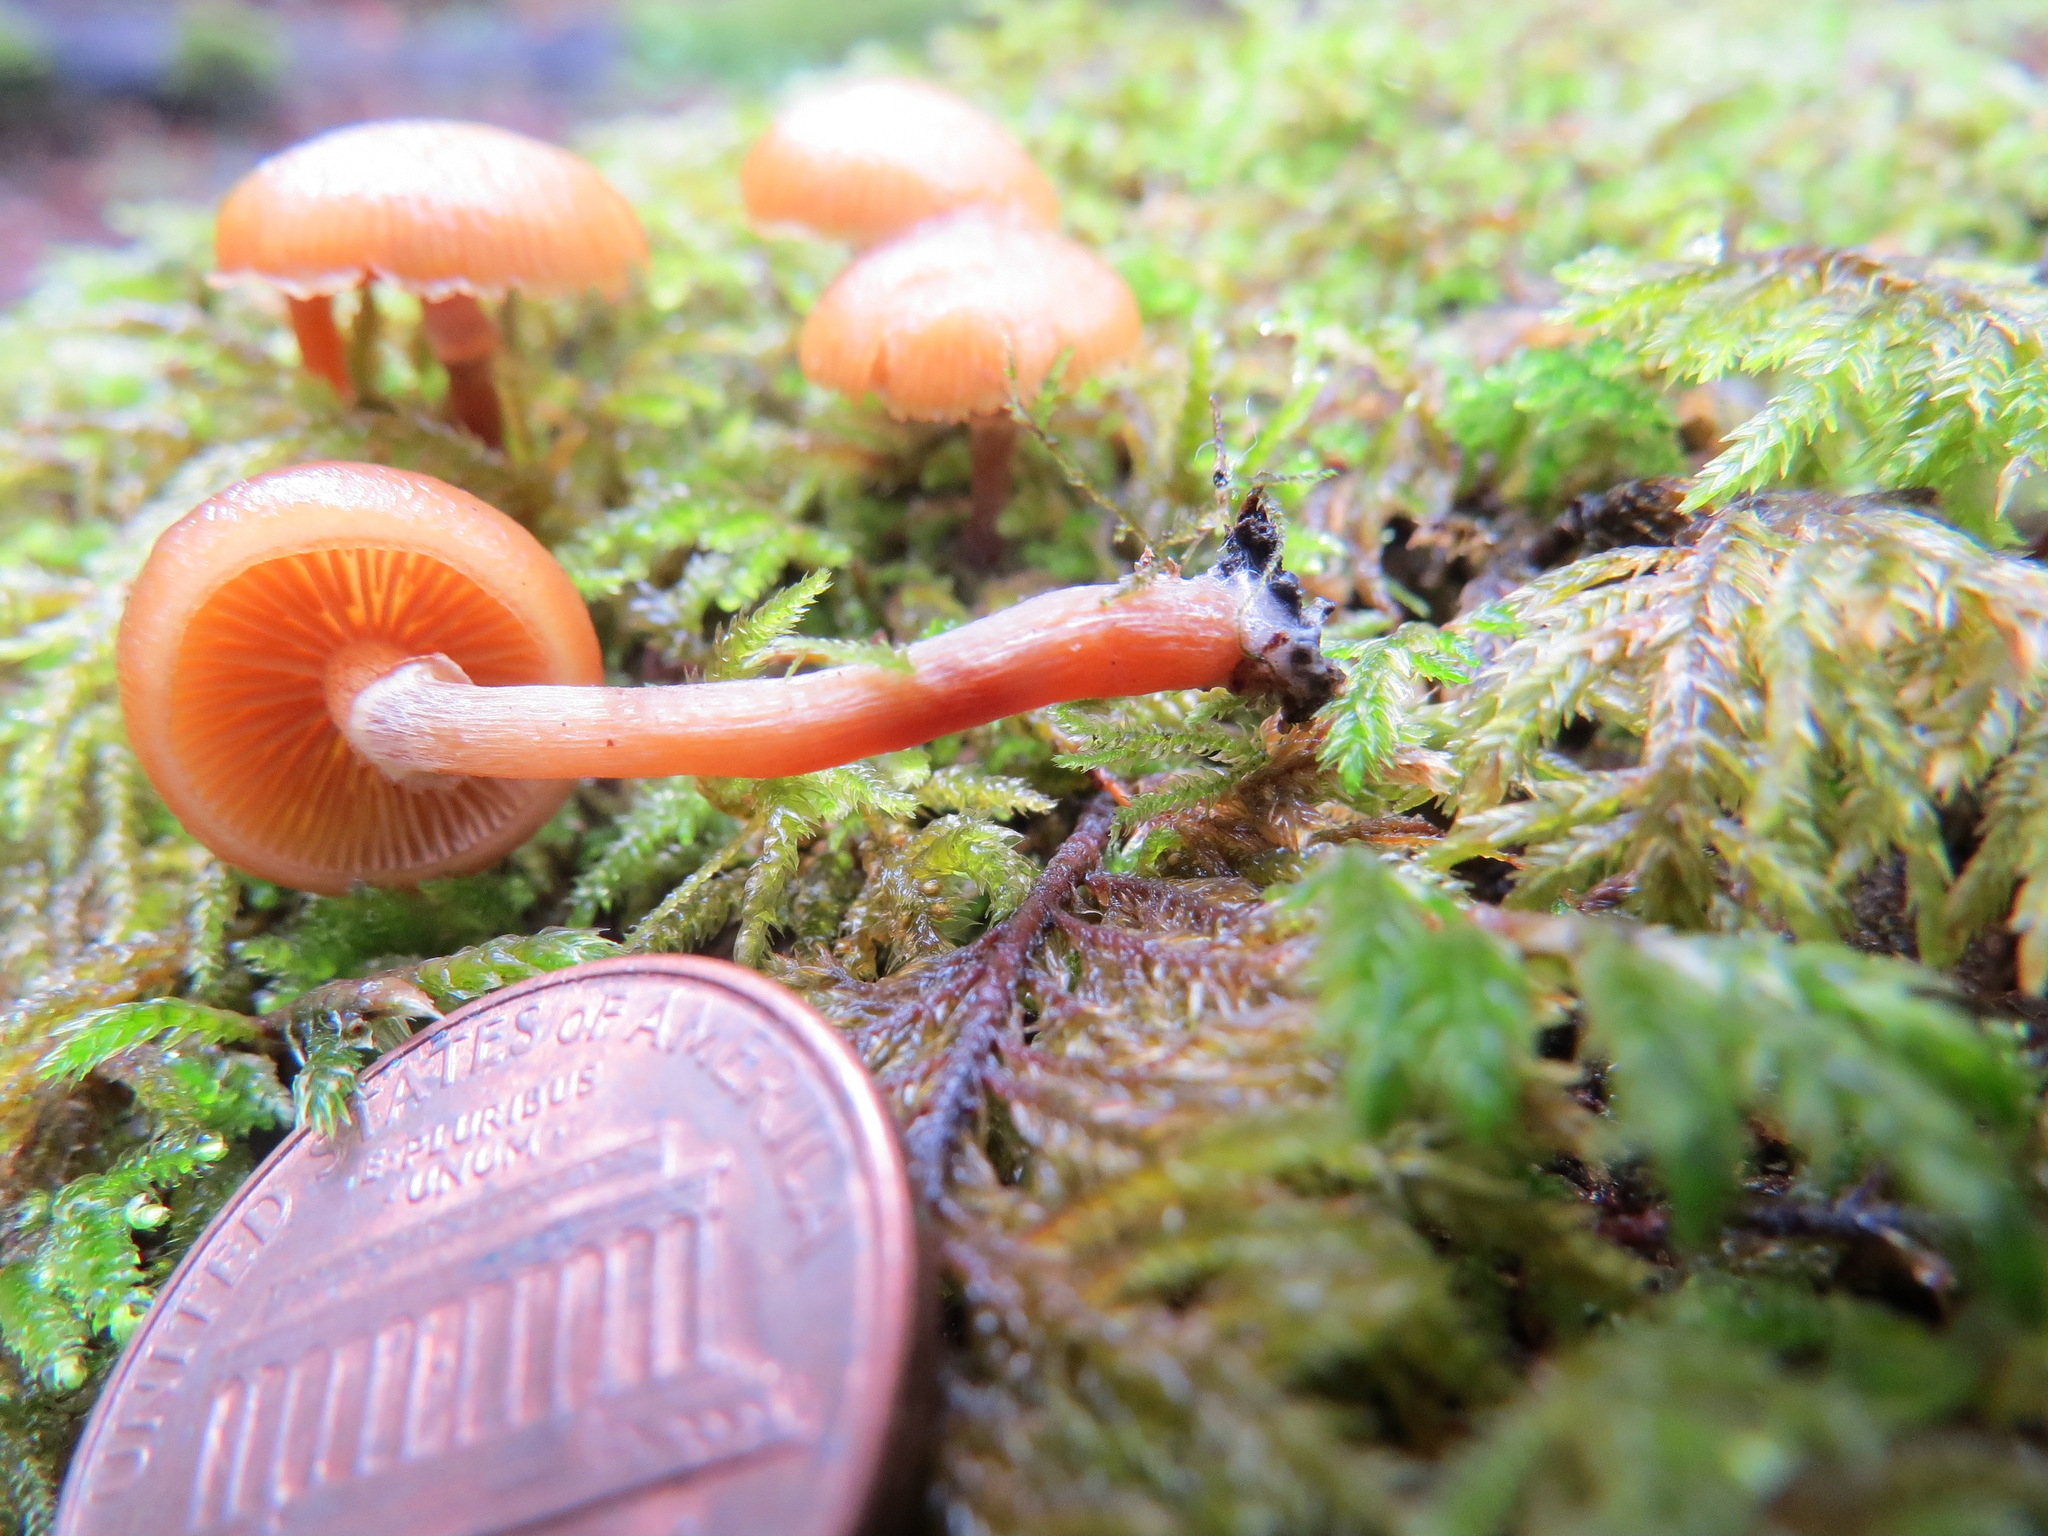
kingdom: Fungi
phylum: Basidiomycota
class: Agaricomycetes
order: Agaricales
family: Hymenogastraceae
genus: Galerina
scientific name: Galerina marginata
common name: Funeral bell
